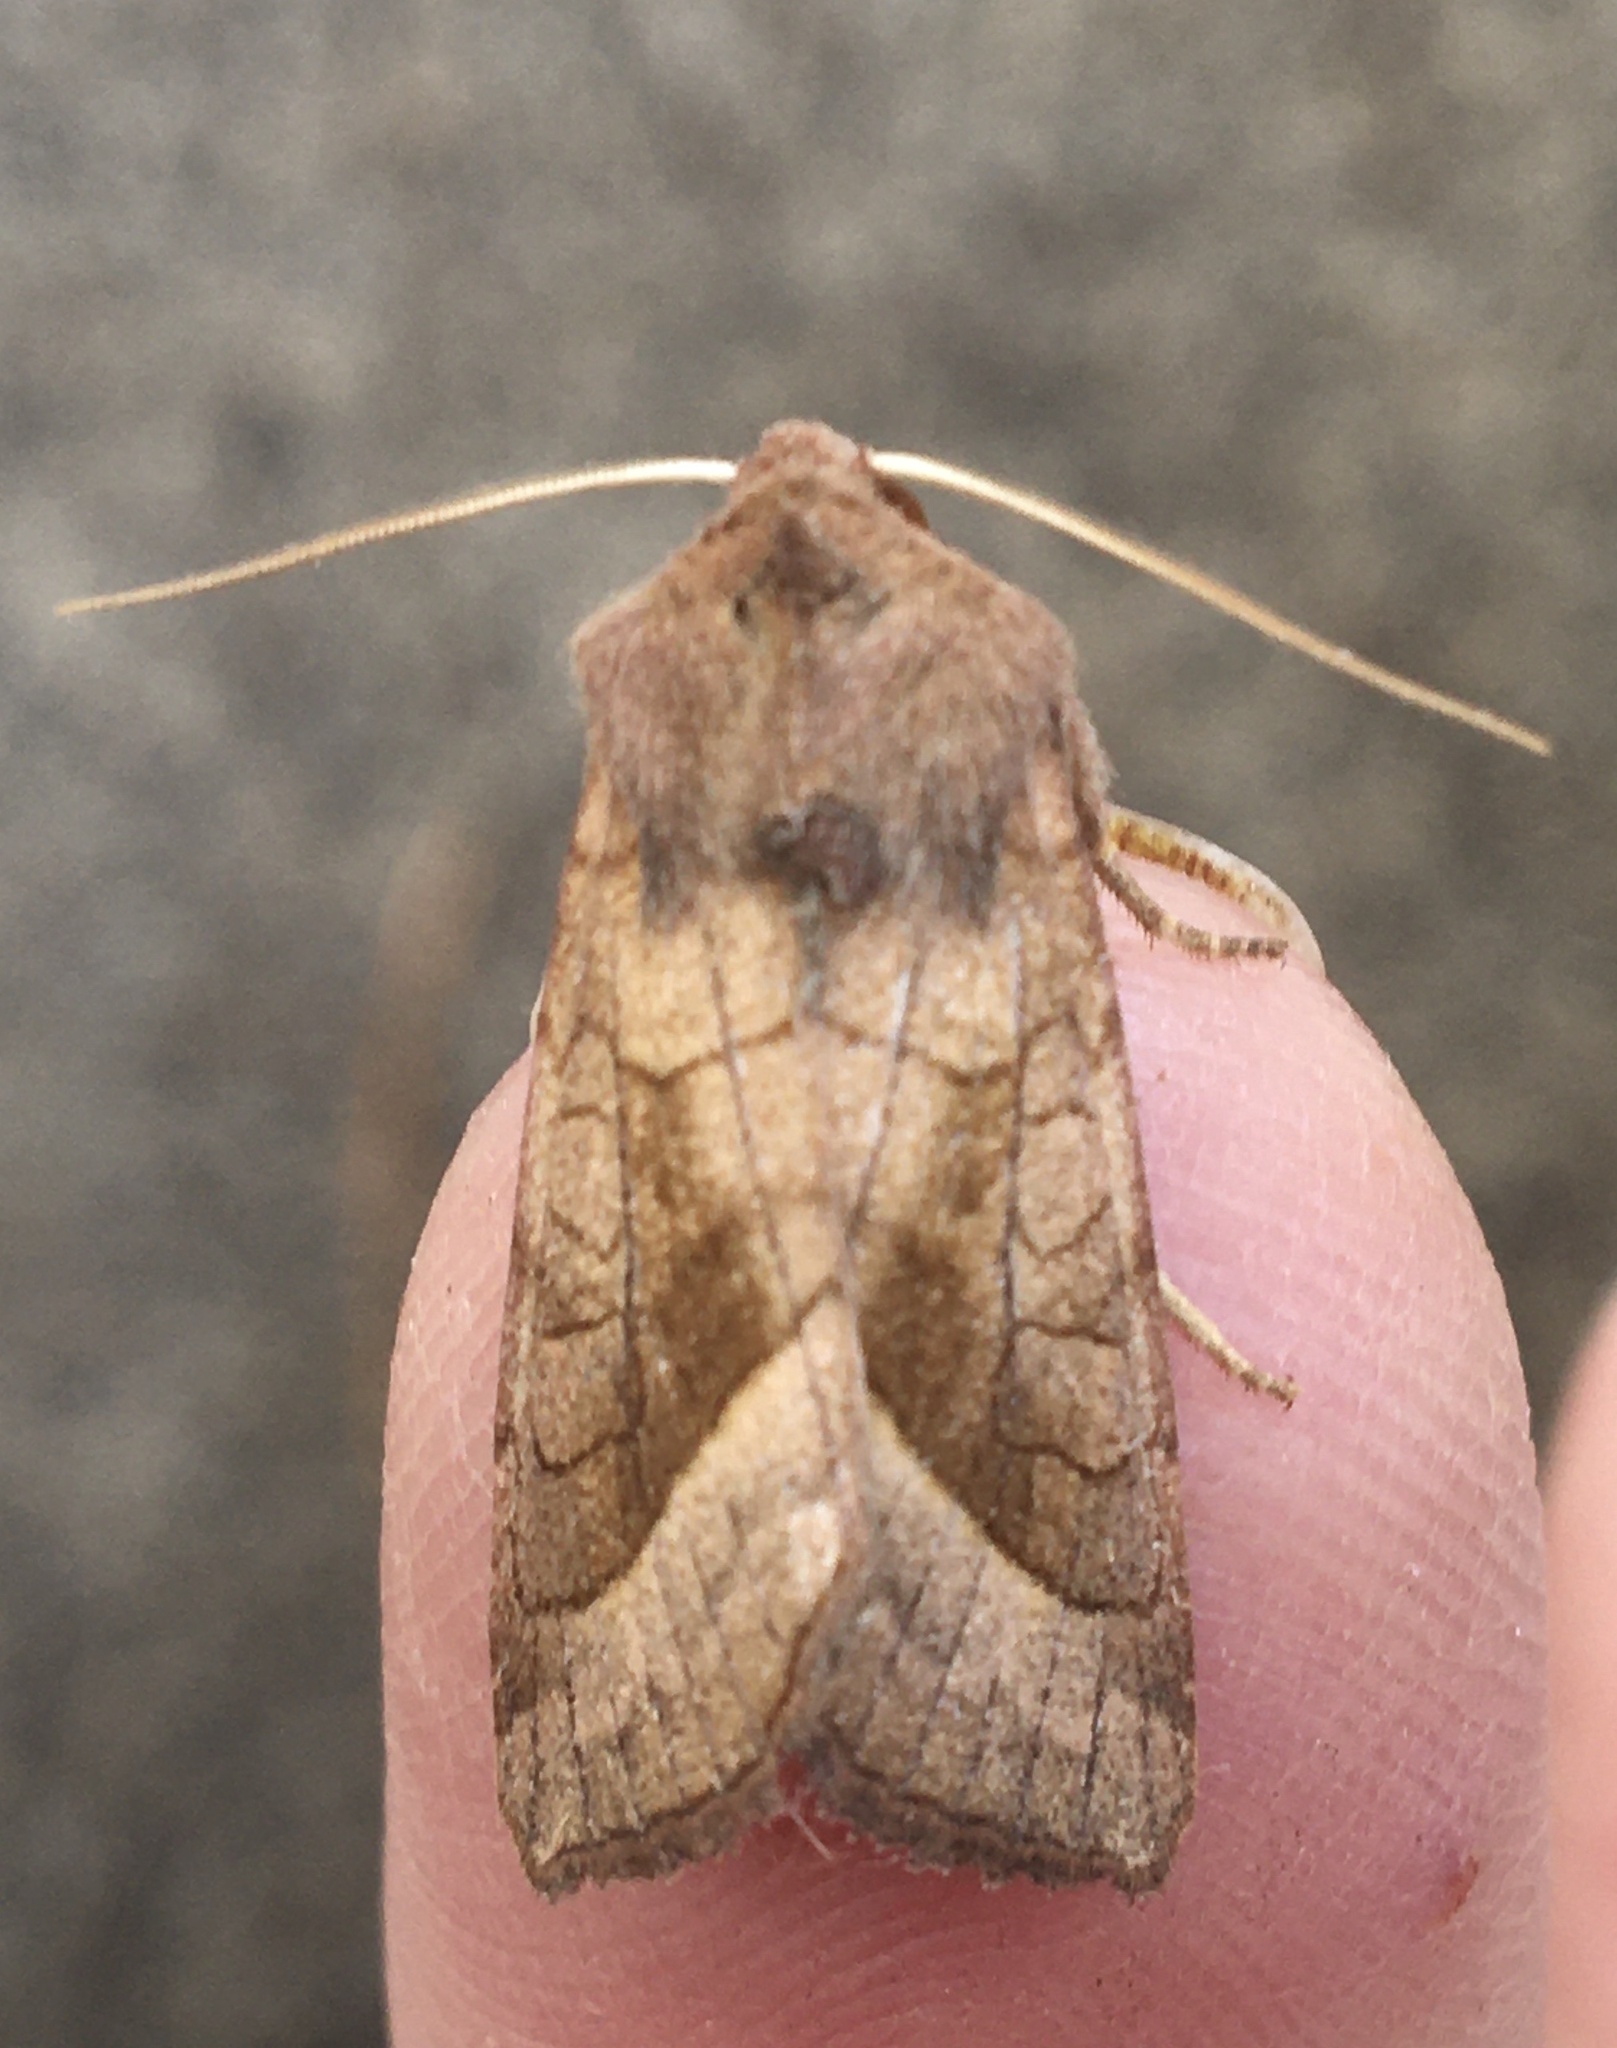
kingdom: Animalia
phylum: Arthropoda
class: Insecta
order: Lepidoptera
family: Noctuidae
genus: Hydraecia
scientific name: Hydraecia micacea
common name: Rosy rustic
